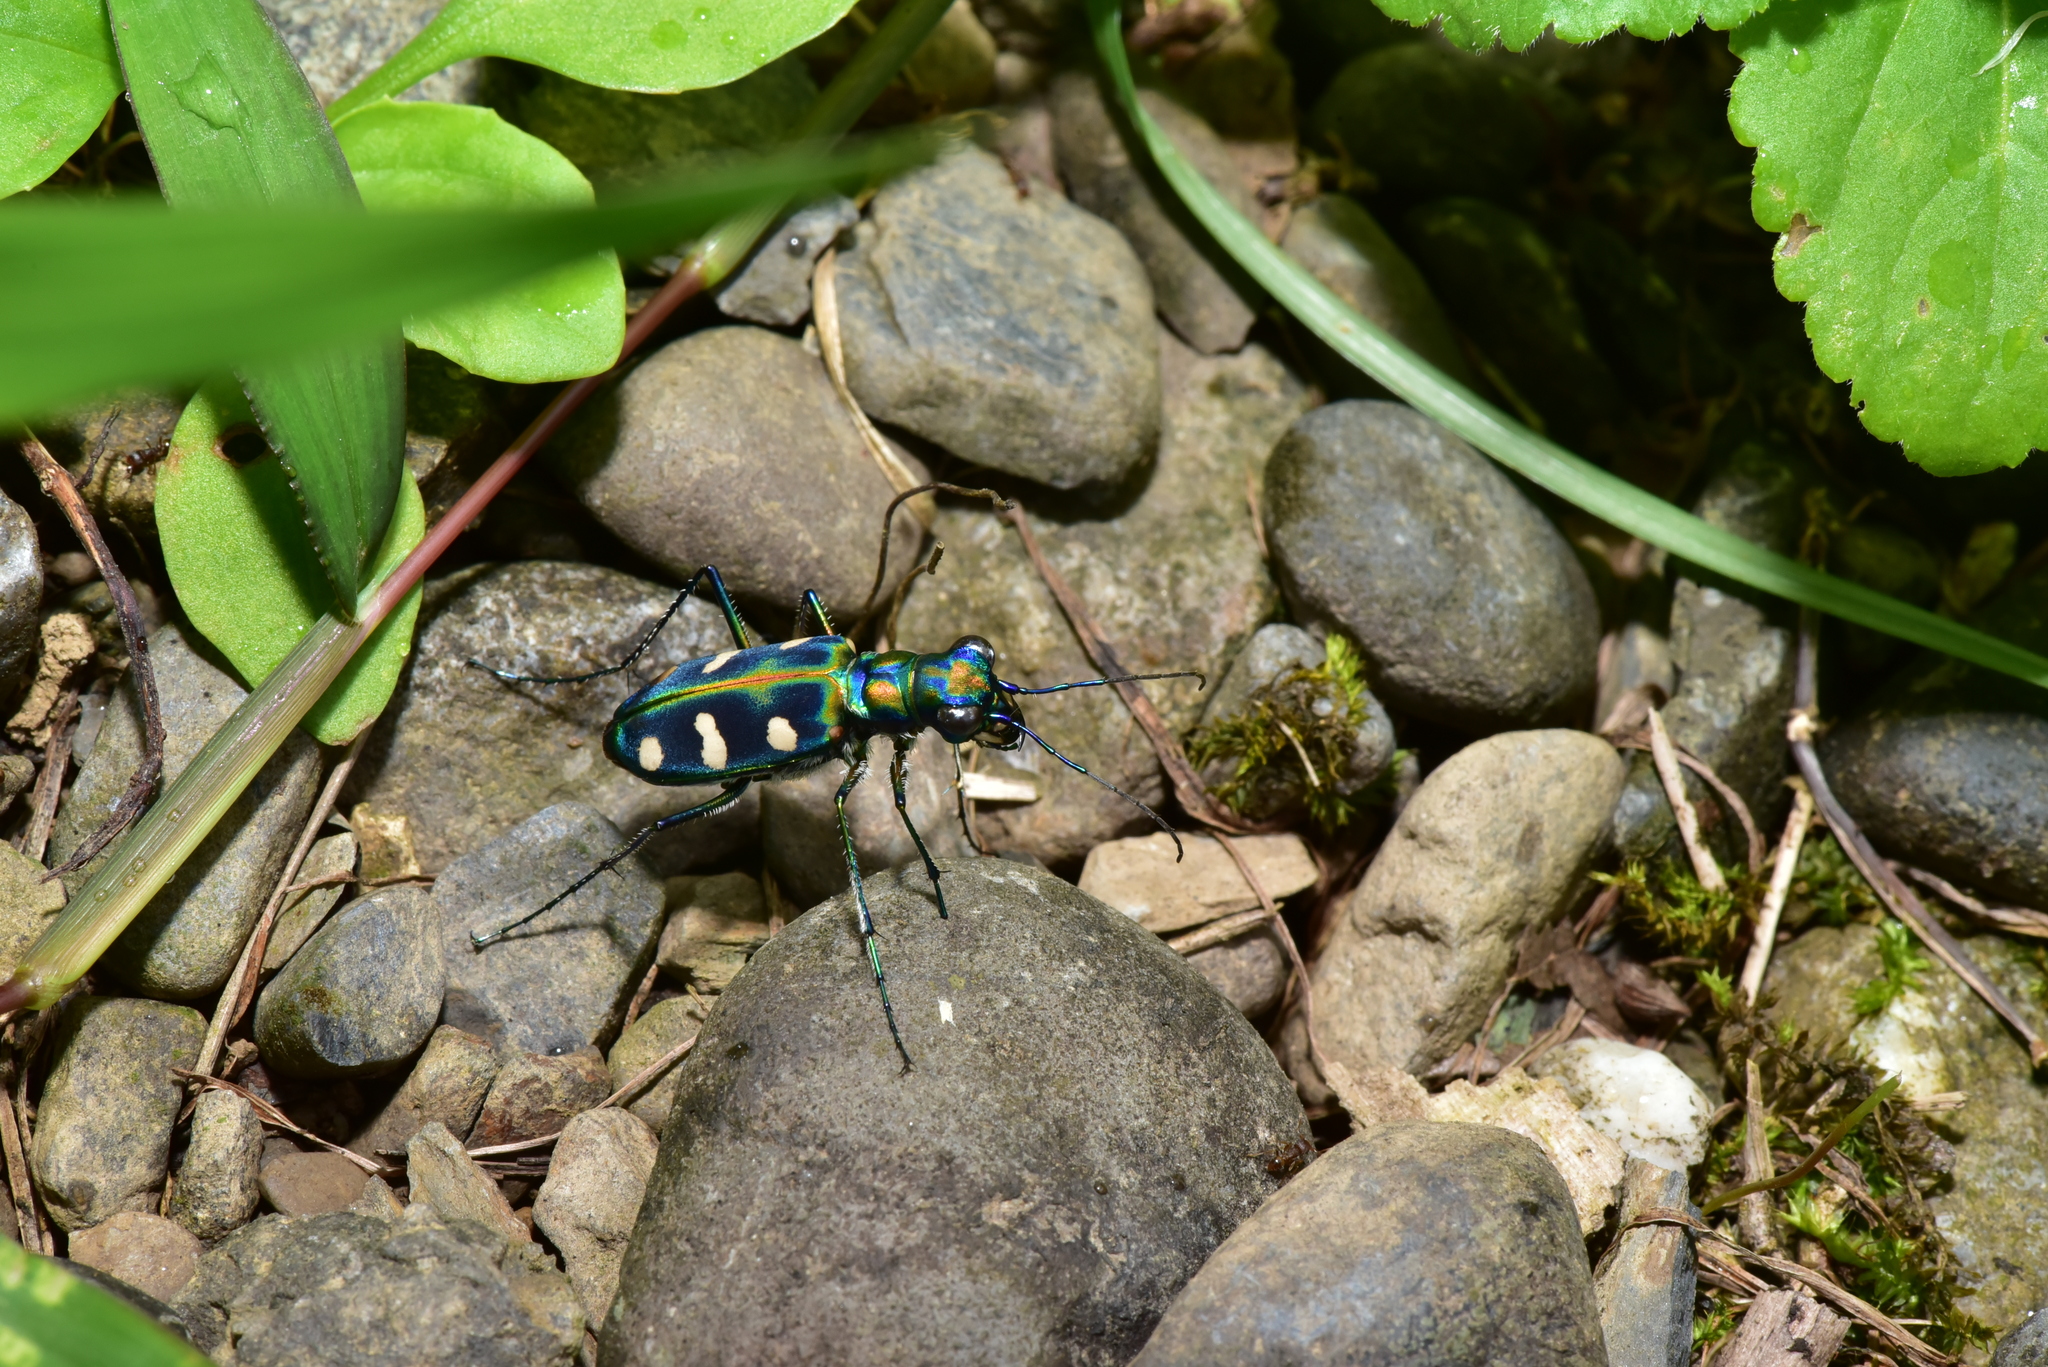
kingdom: Animalia
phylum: Arthropoda
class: Insecta
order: Coleoptera
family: Carabidae
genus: Cicindela
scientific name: Cicindela batesi
